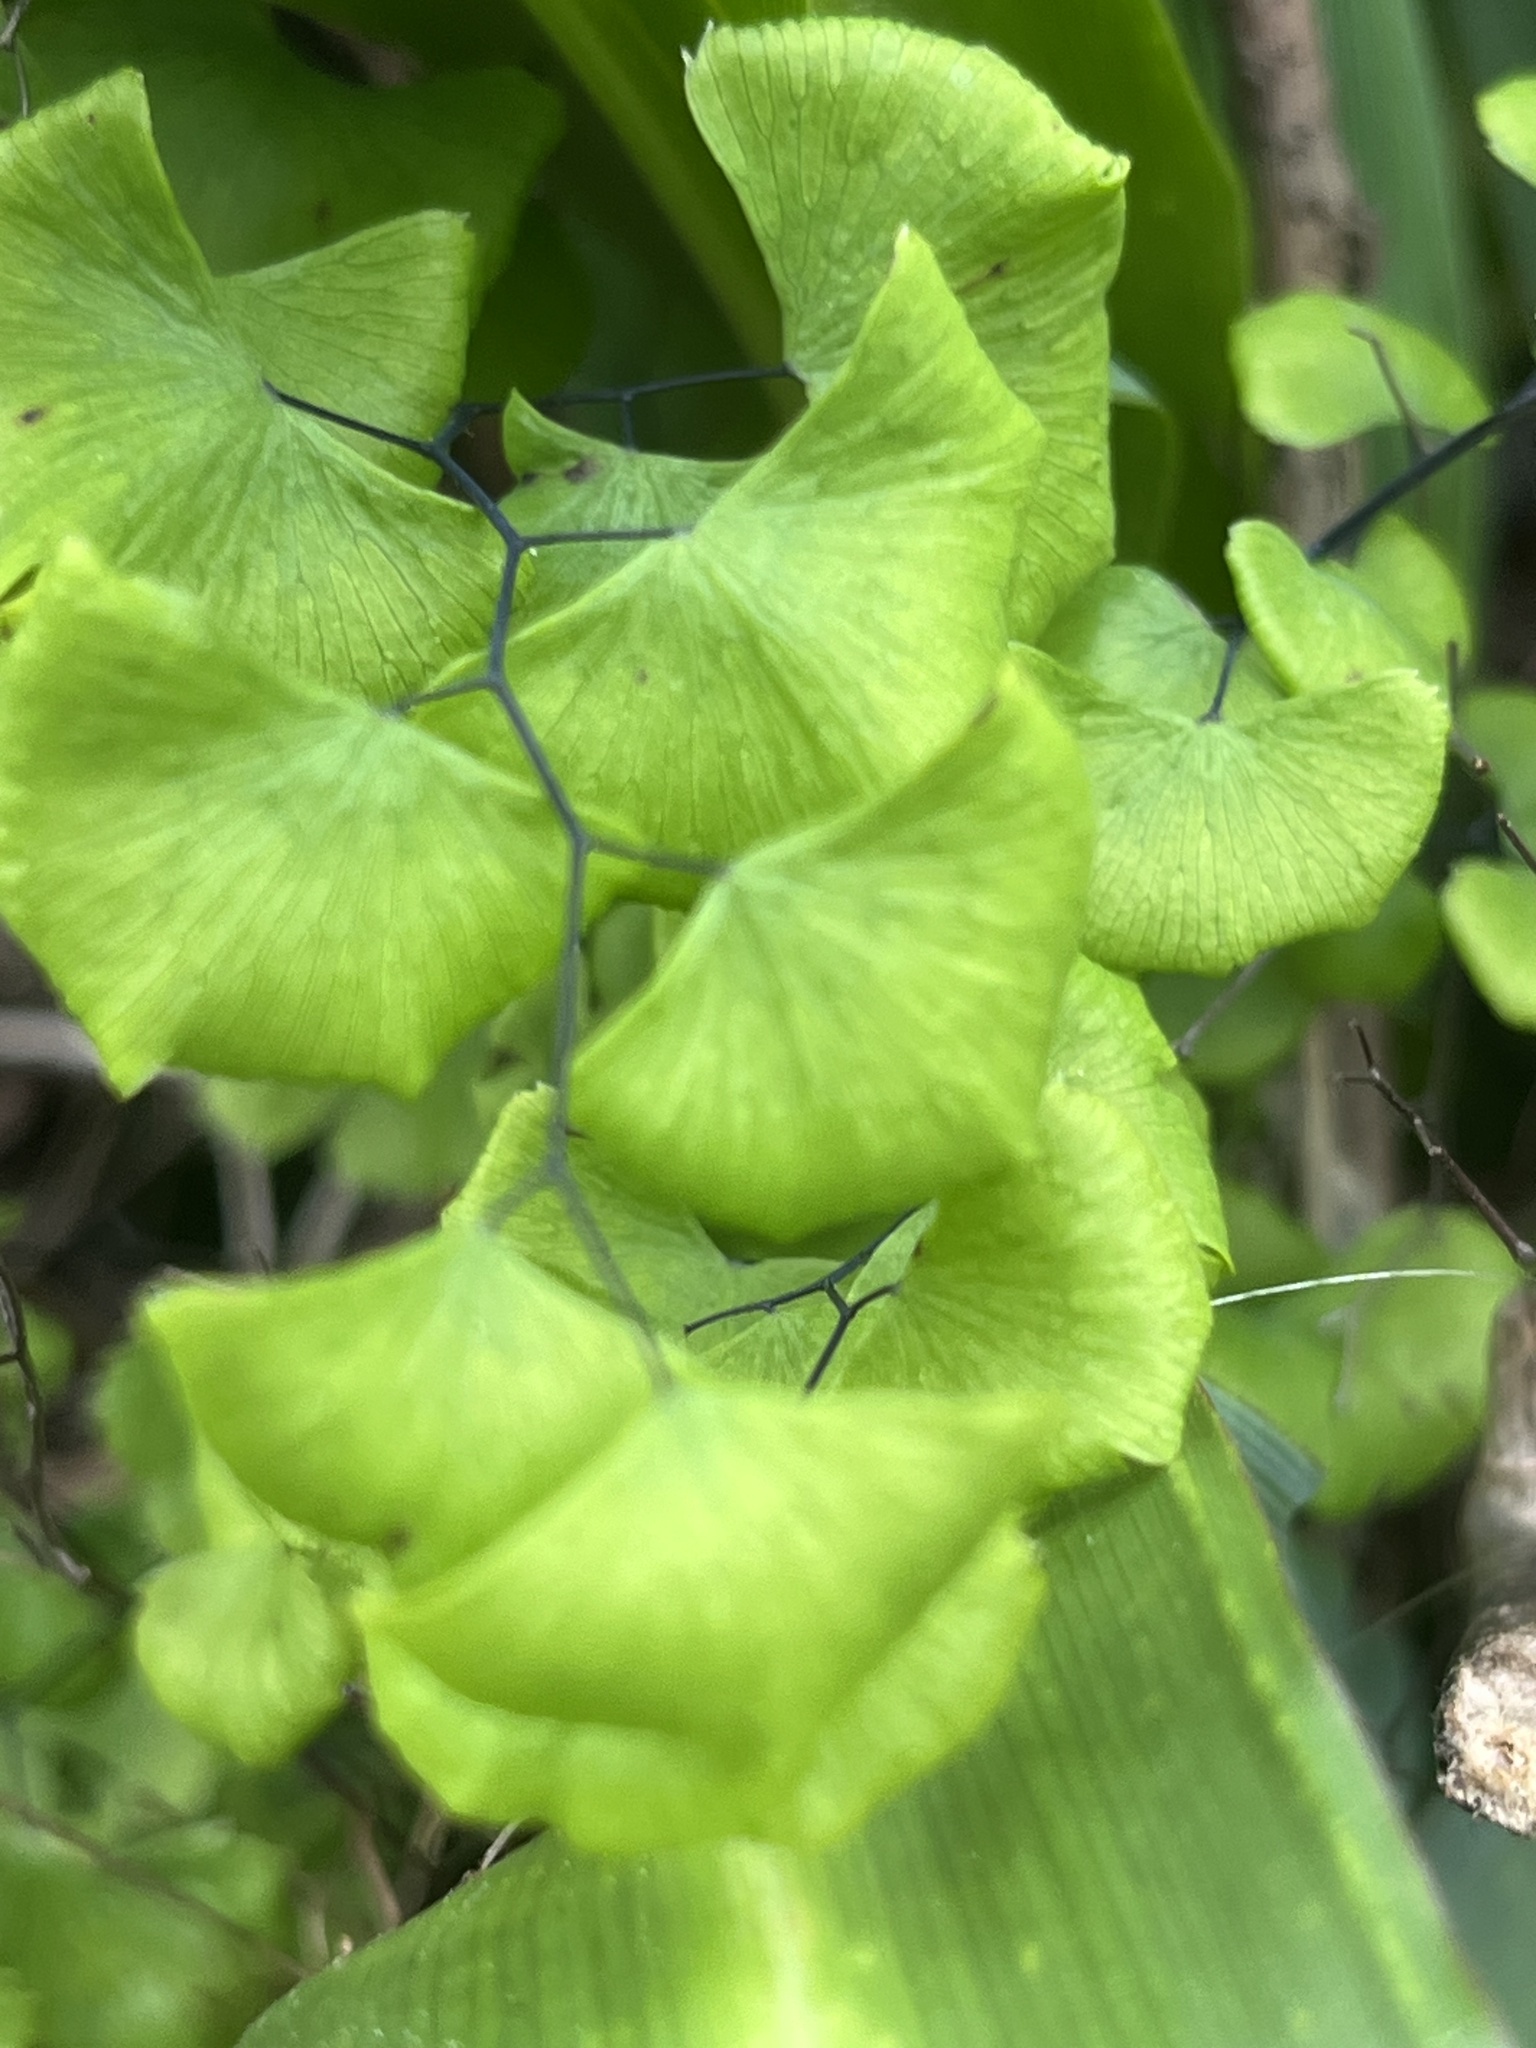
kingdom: Plantae
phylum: Tracheophyta
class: Polypodiopsida
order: Polypodiales
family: Pteridaceae
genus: Adiantum
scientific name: Adiantum jordanii
